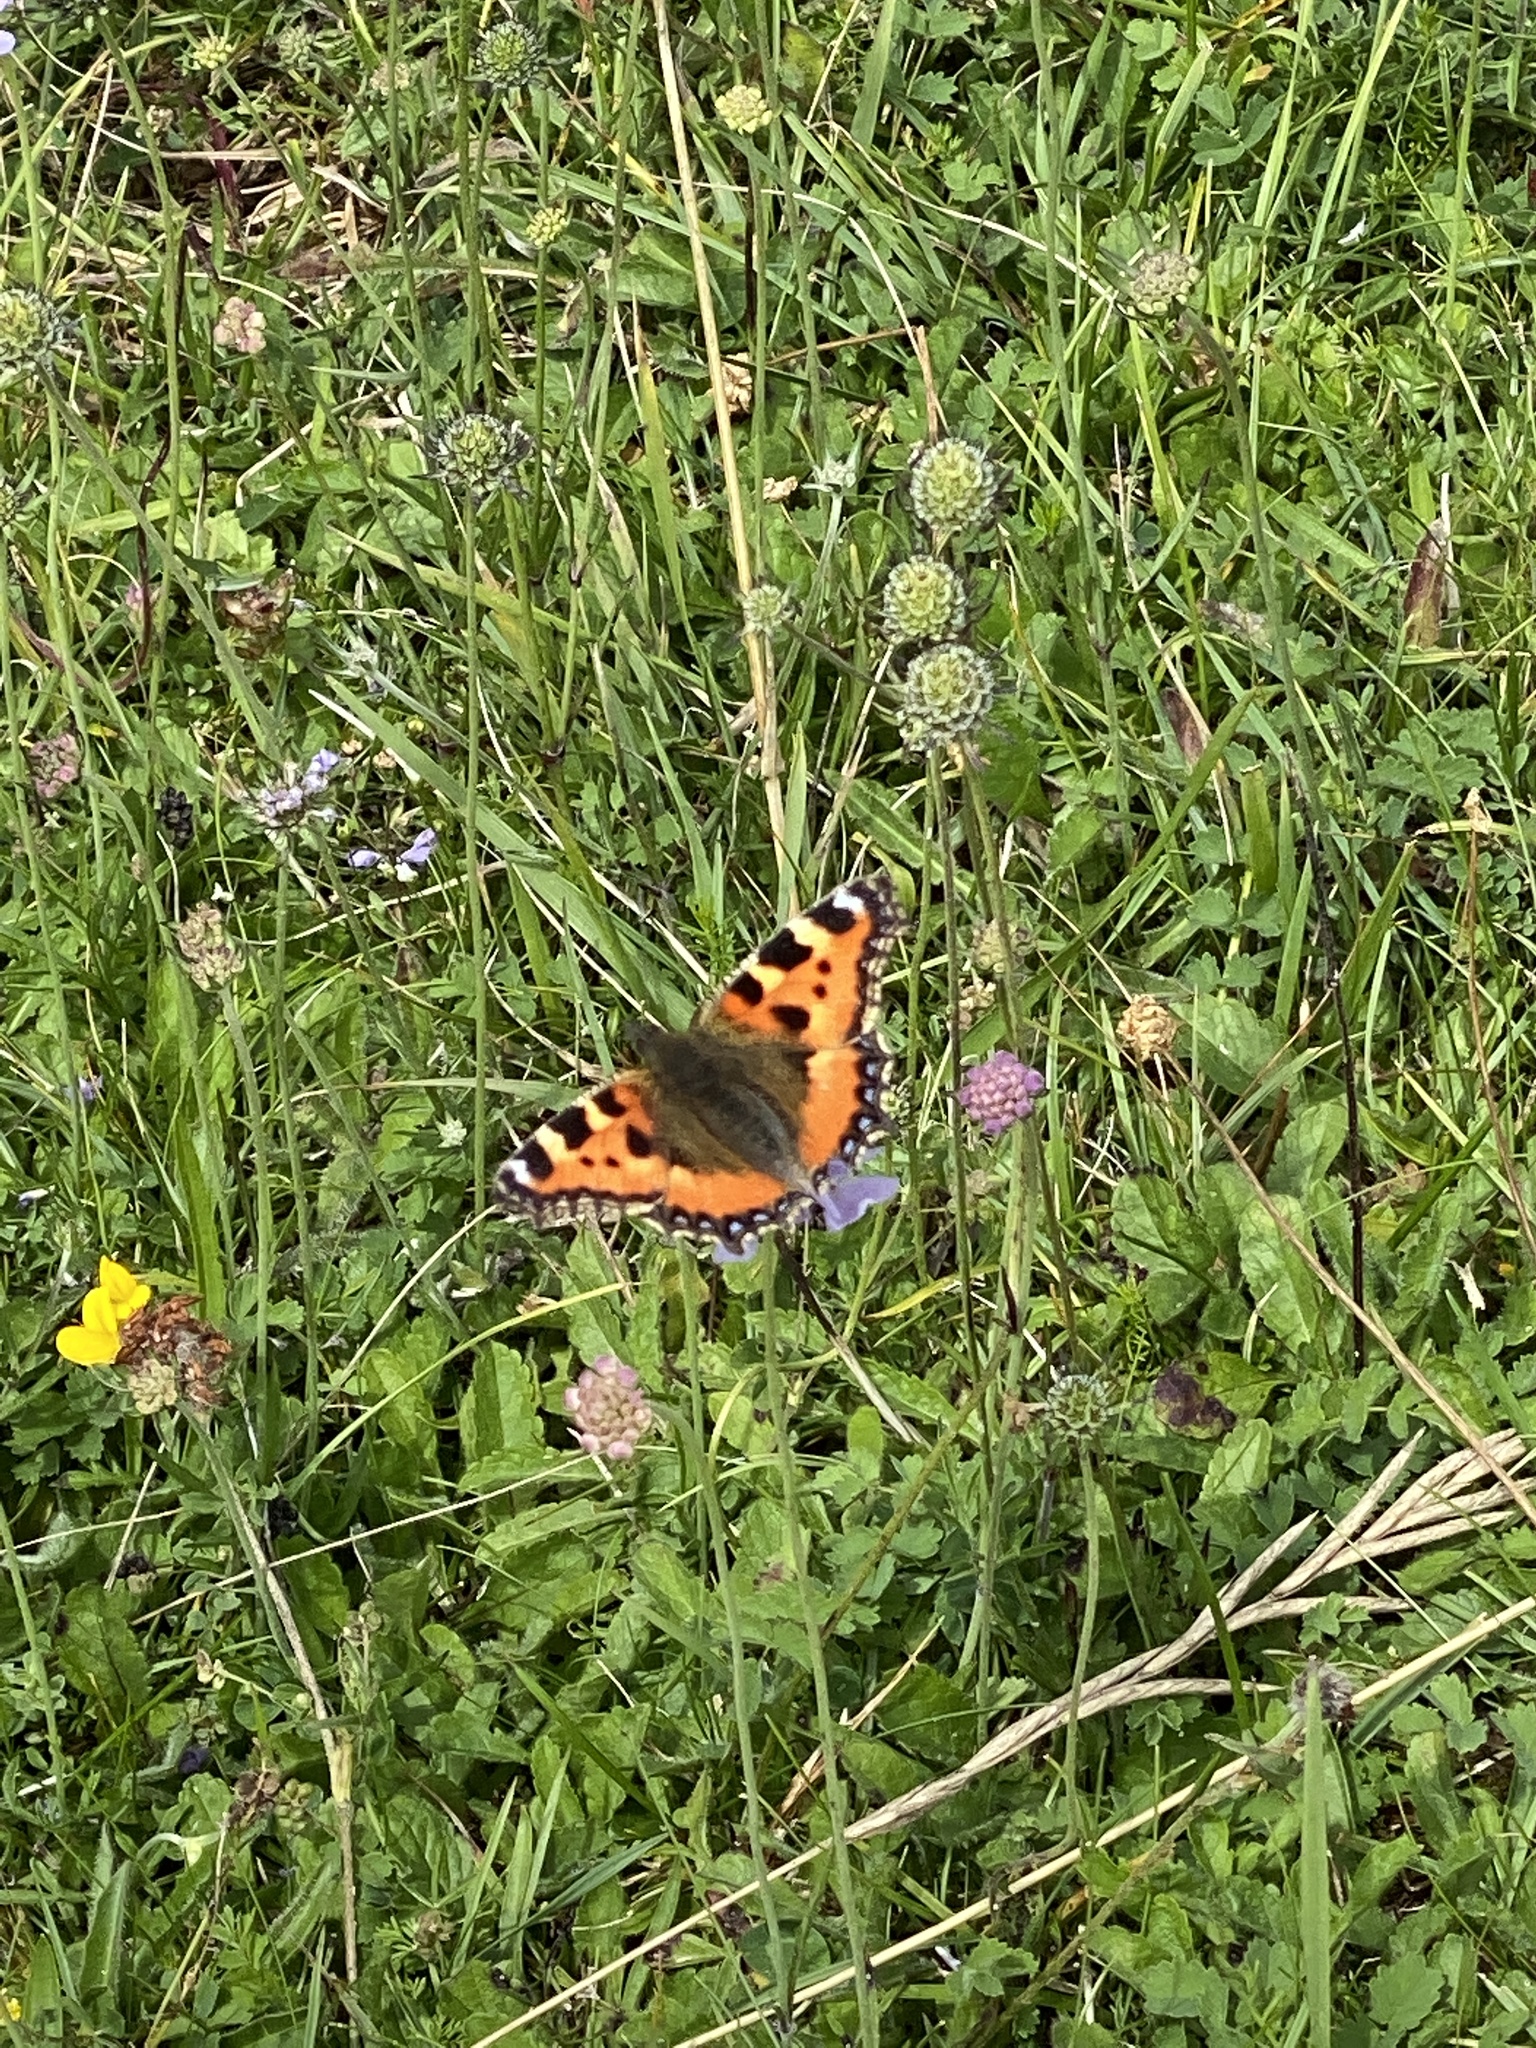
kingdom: Animalia
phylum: Arthropoda
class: Insecta
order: Lepidoptera
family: Nymphalidae
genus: Aglais
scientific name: Aglais urticae
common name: Small tortoiseshell
